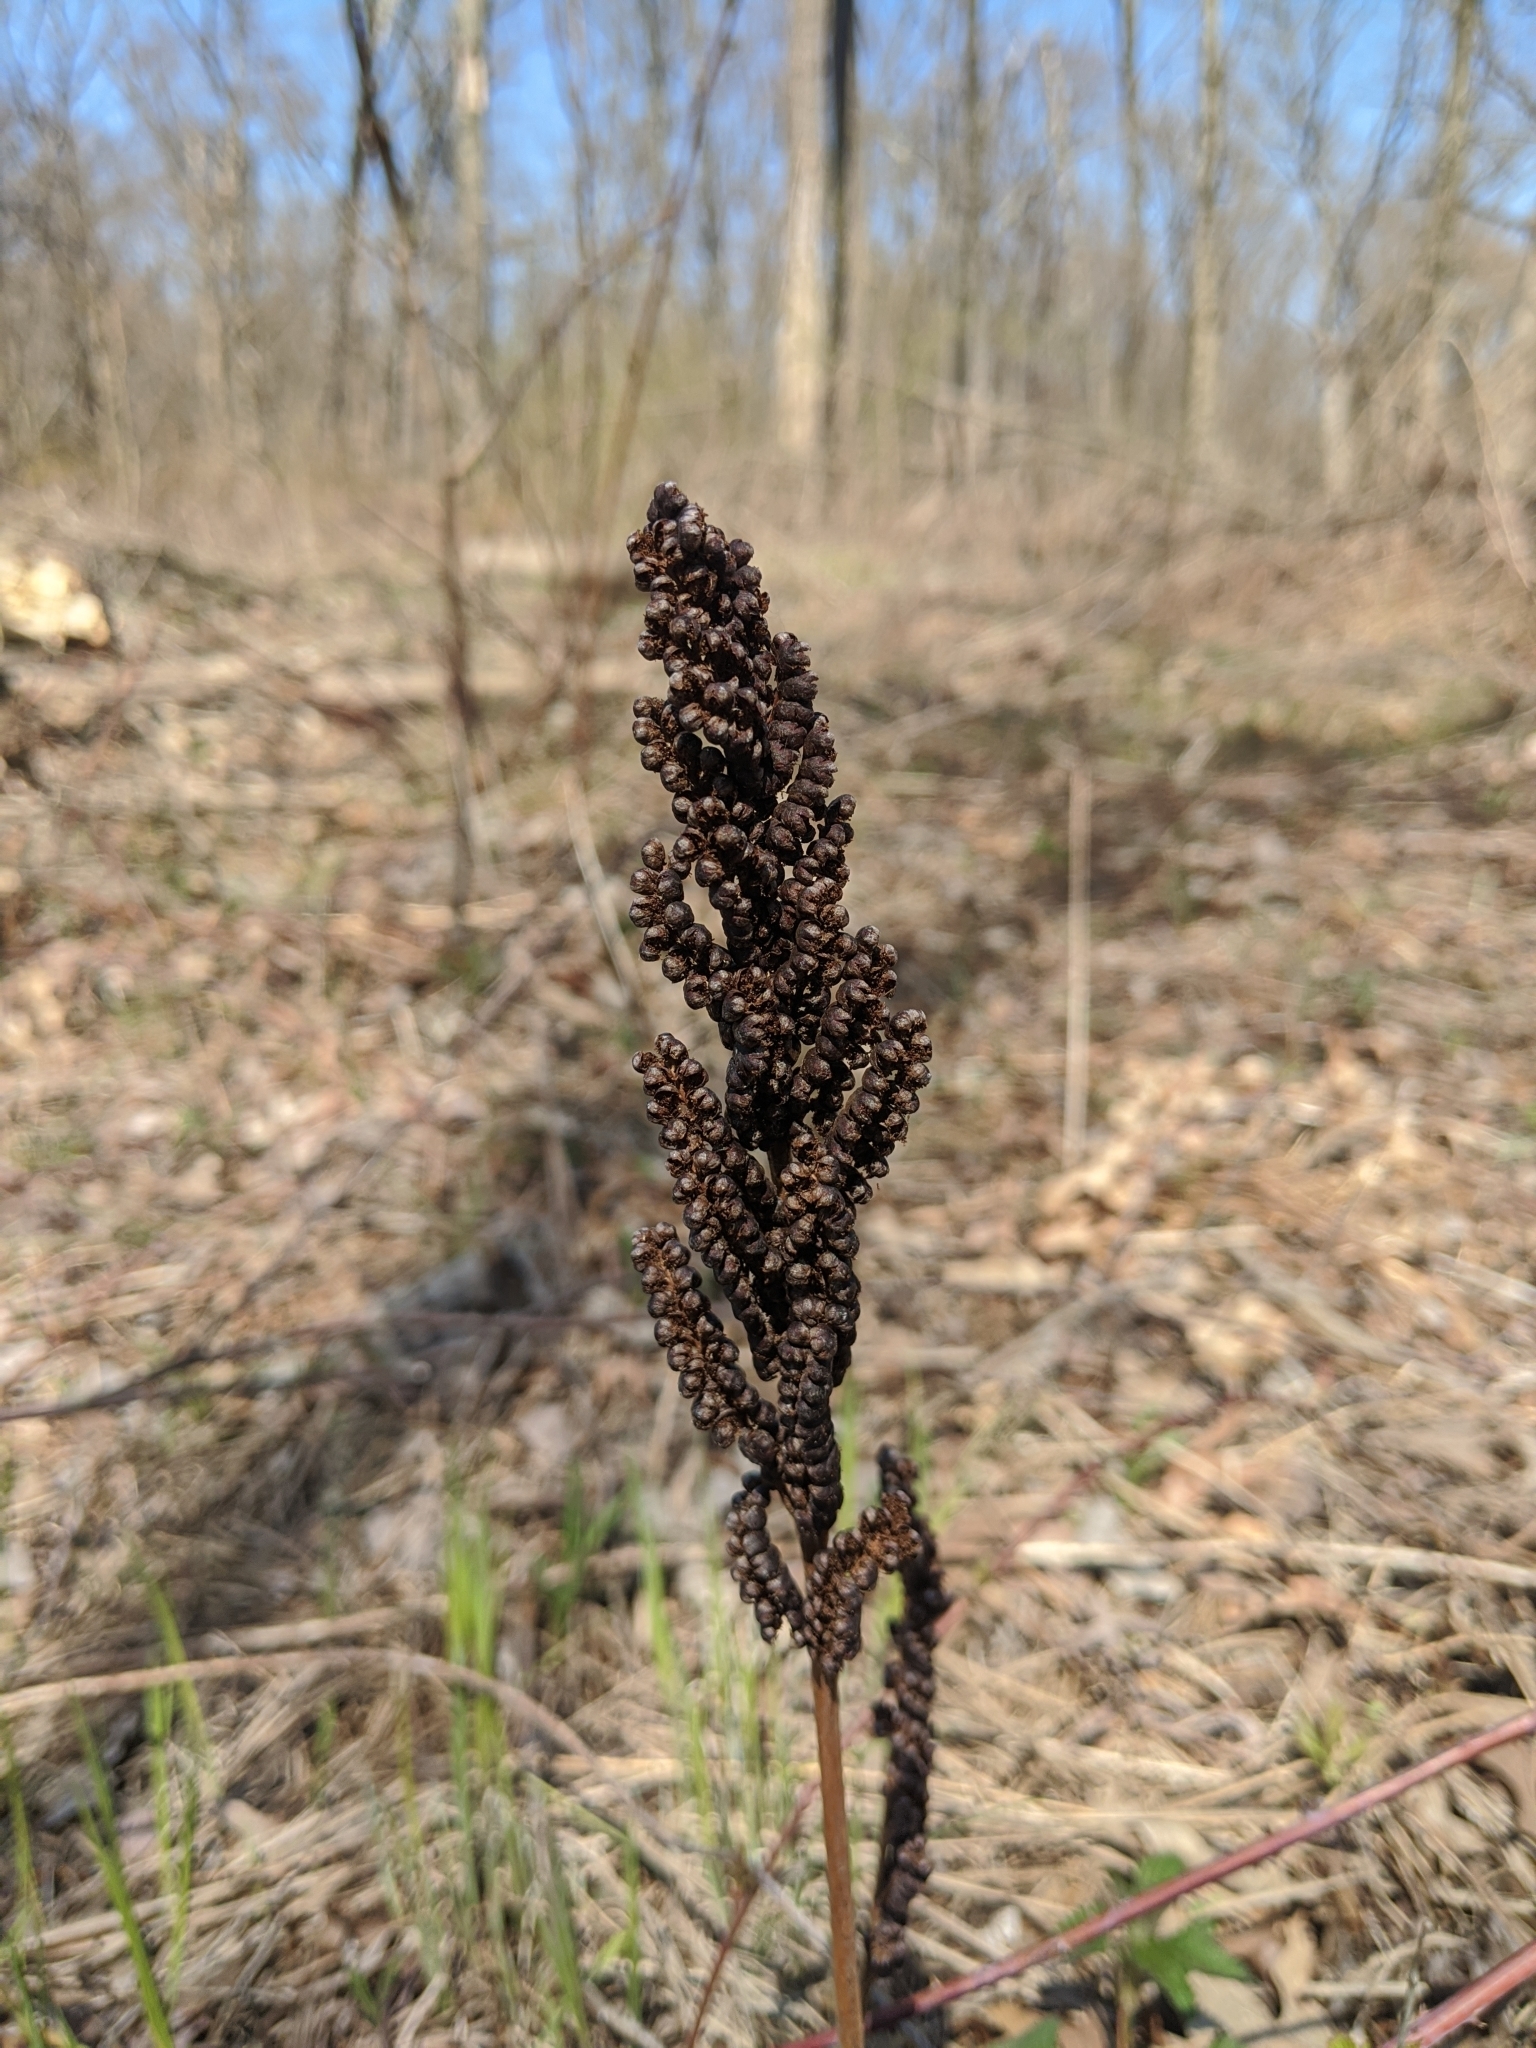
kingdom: Plantae
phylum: Tracheophyta
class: Polypodiopsida
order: Polypodiales
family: Onocleaceae
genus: Onoclea
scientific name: Onoclea sensibilis
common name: Sensitive fern
